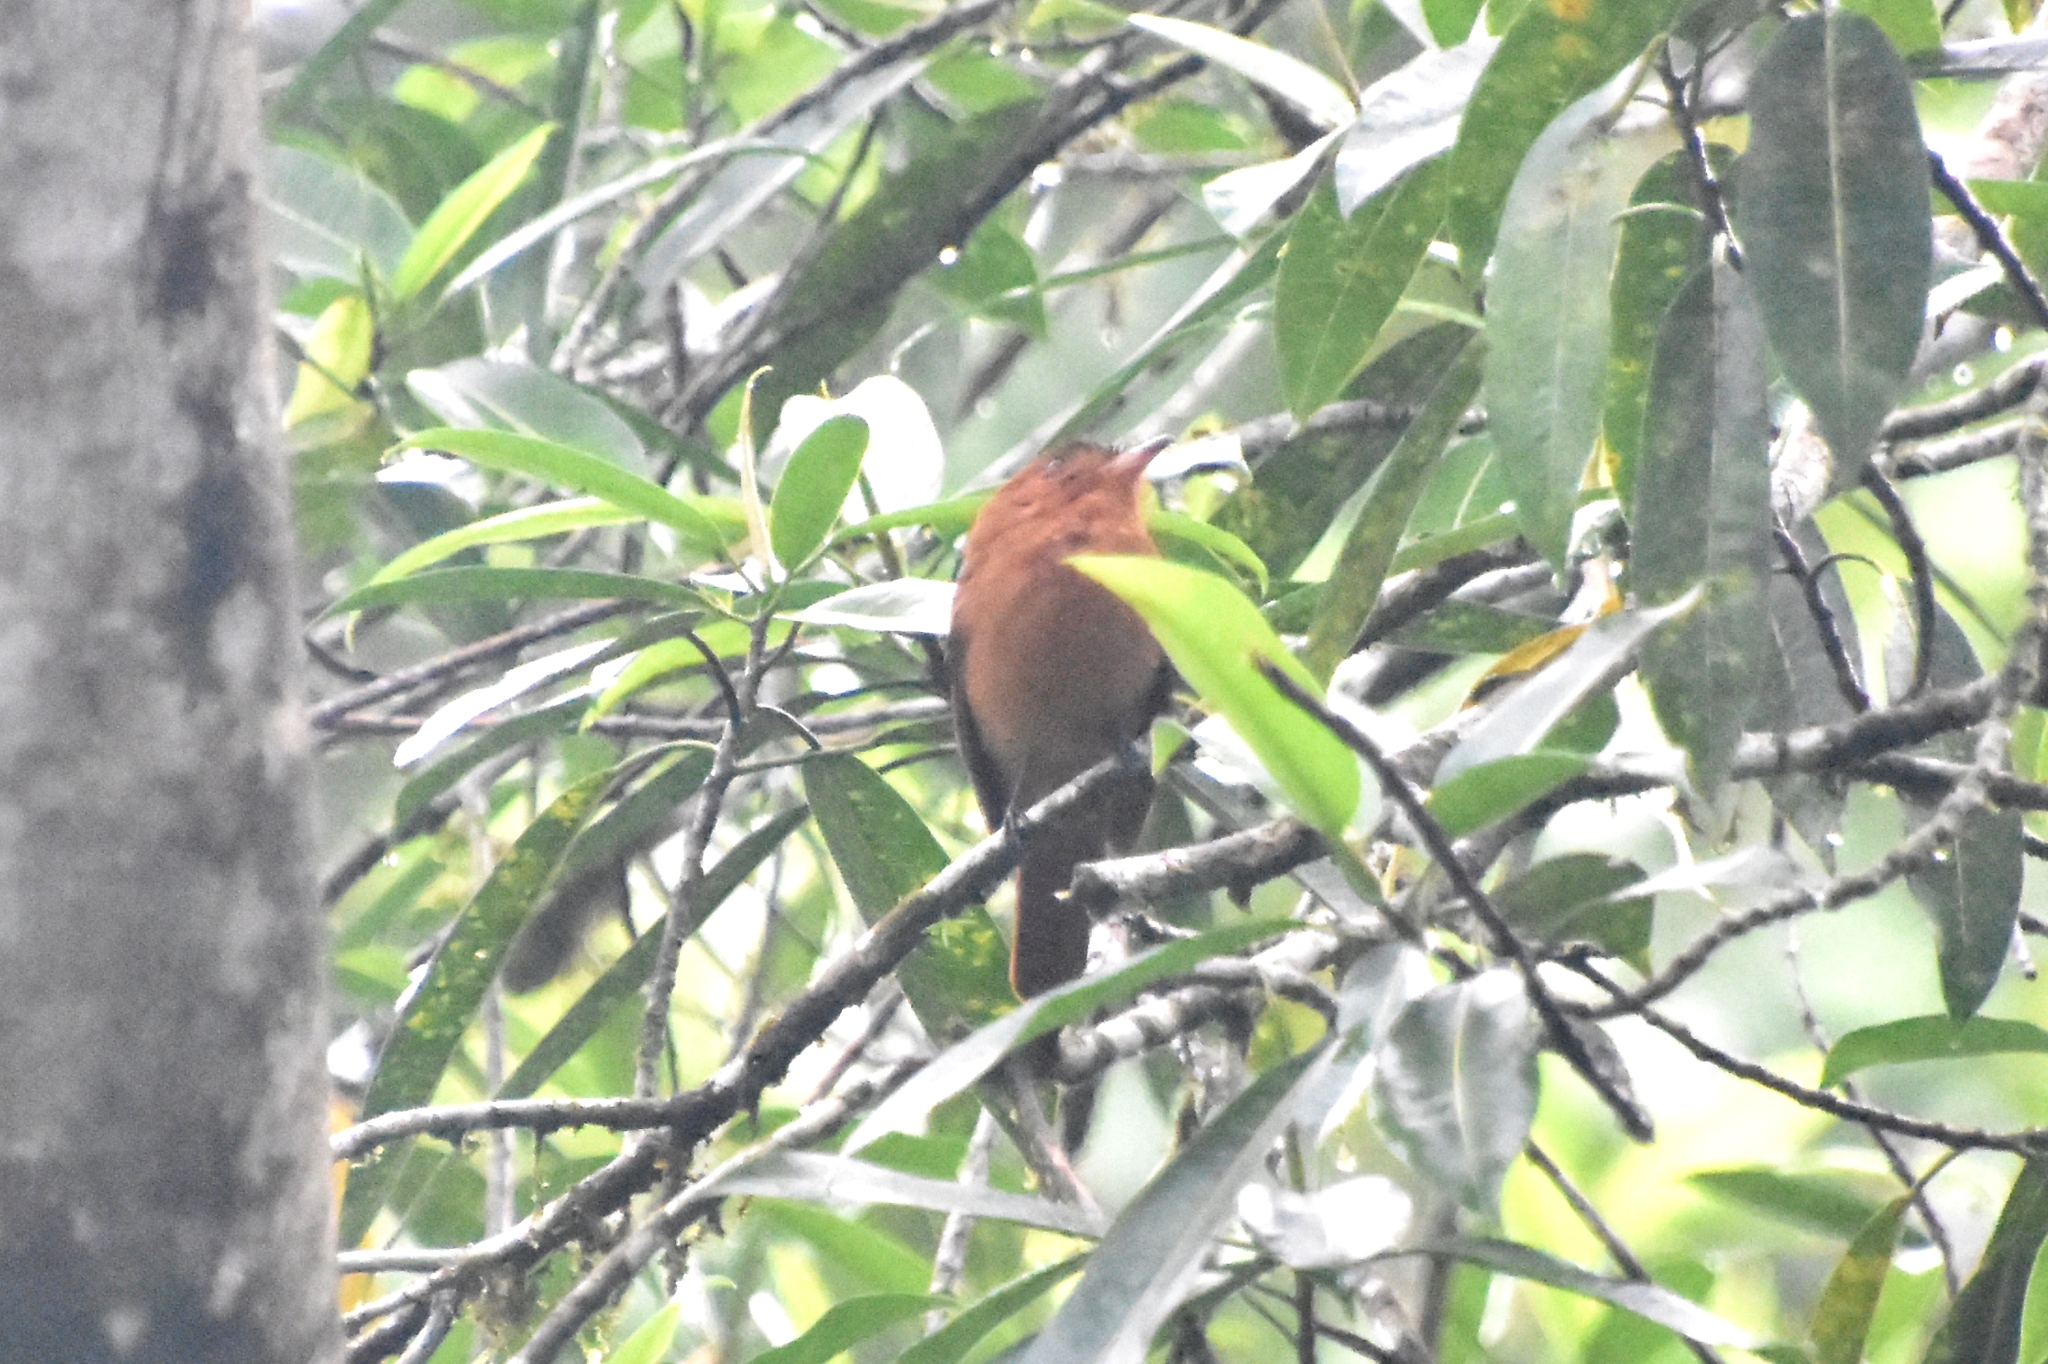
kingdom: Animalia
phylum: Chordata
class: Aves
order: Passeriformes
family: Tyrannidae
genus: Rhytipterna
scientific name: Rhytipterna holerythra
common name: Rufous mourner
